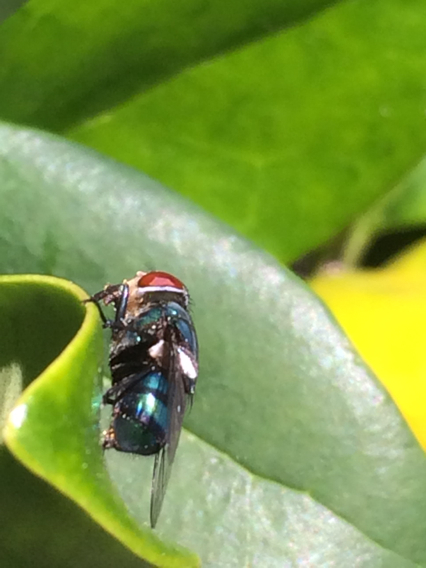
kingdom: Animalia
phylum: Arthropoda
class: Insecta
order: Diptera
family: Calliphoridae
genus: Chrysomya
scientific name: Chrysomya megacephala
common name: Blow fly
